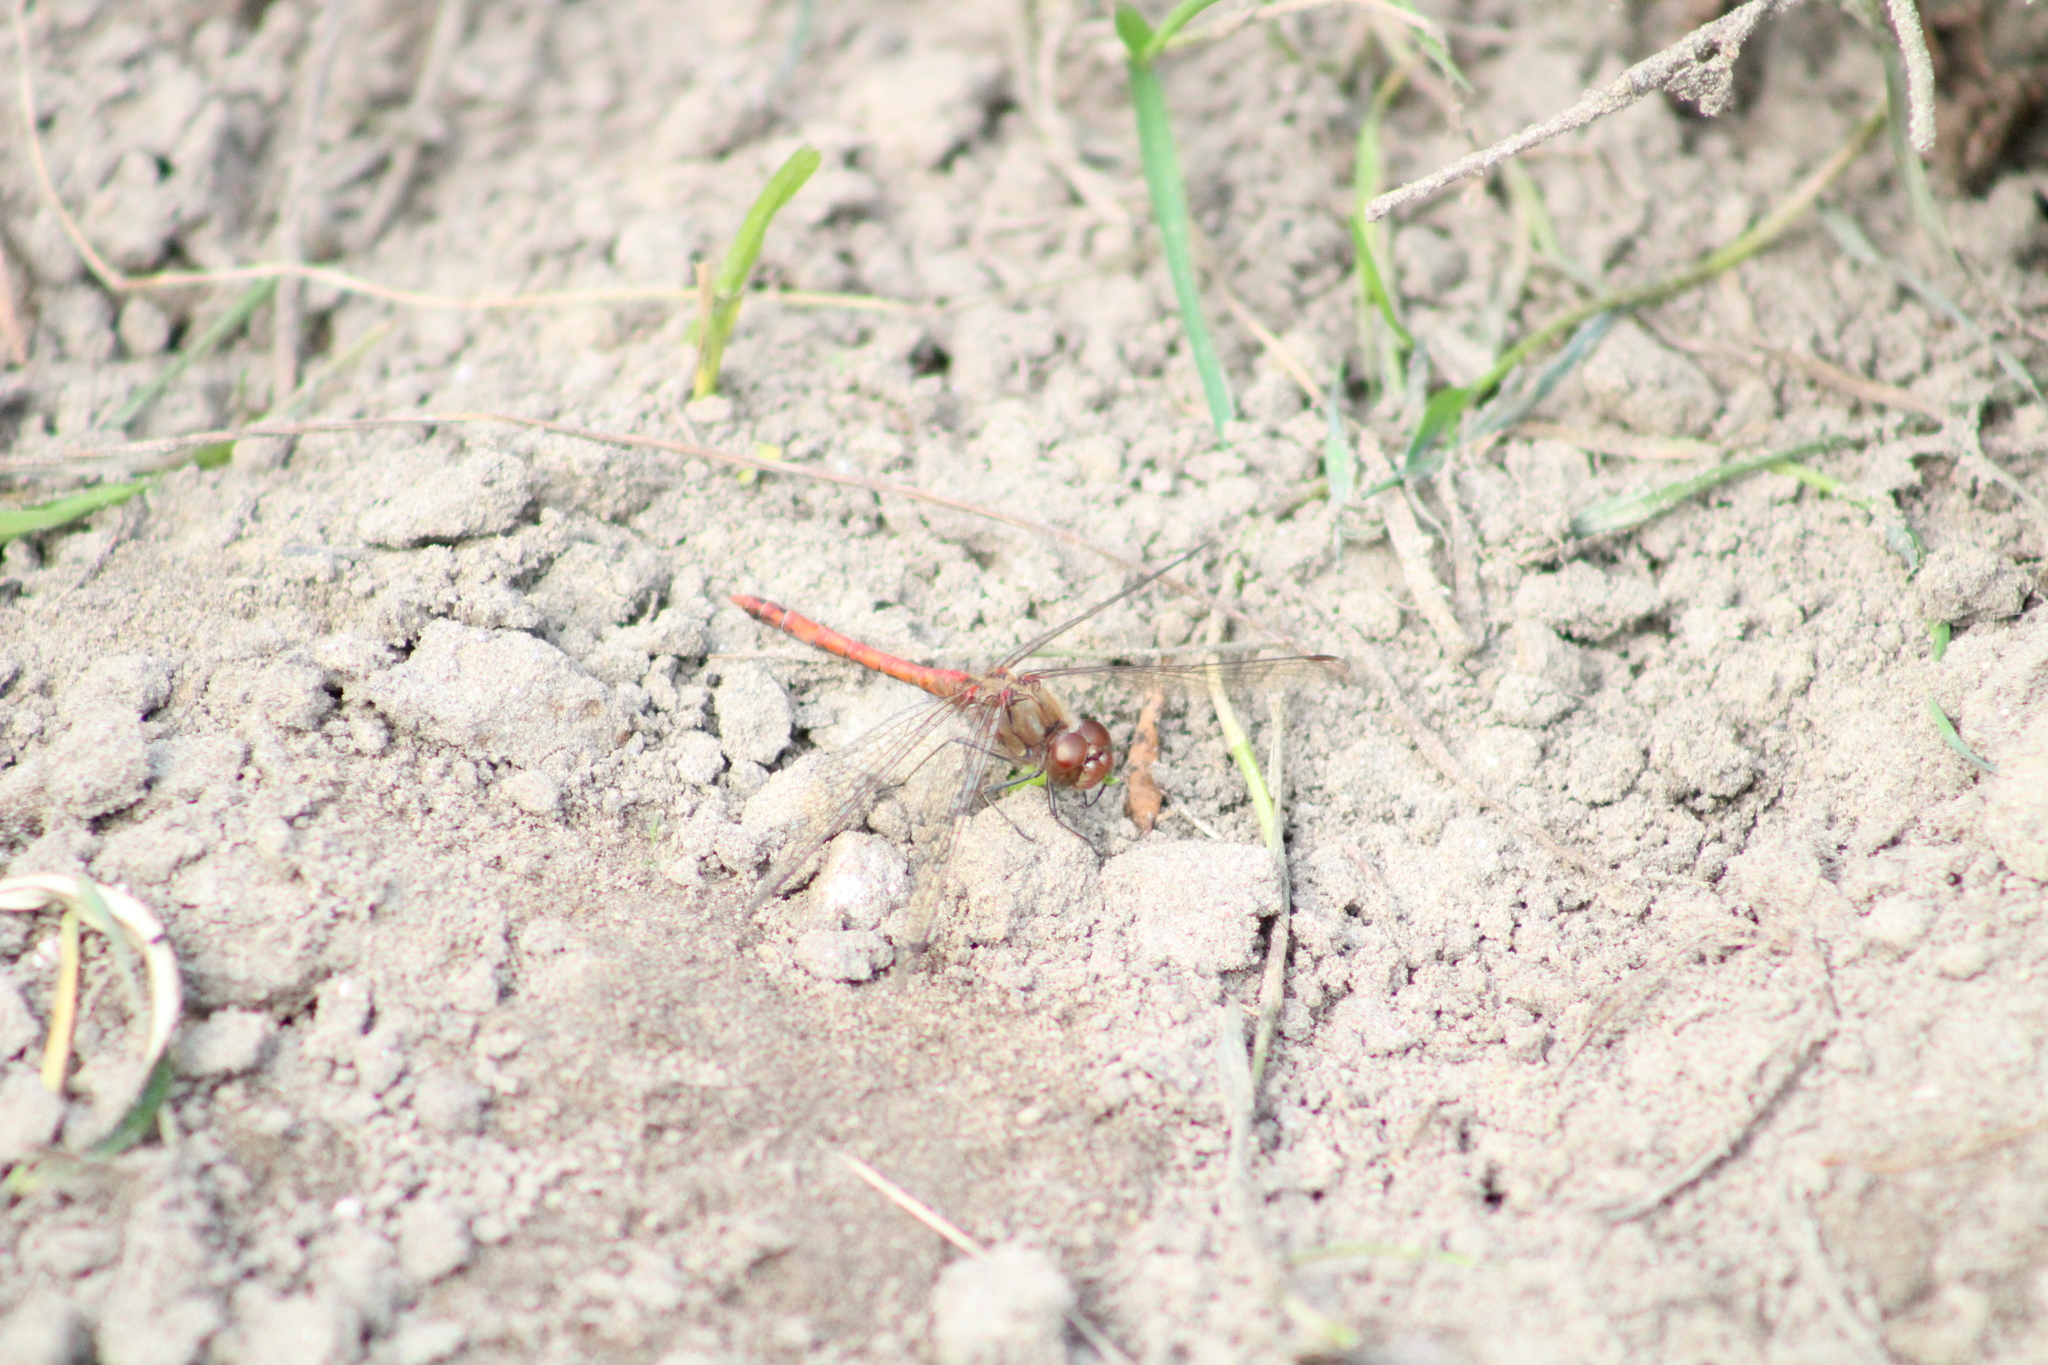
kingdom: Animalia
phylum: Arthropoda
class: Insecta
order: Odonata
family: Libellulidae
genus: Sympetrum
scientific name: Sympetrum striolatum
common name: Common darter
